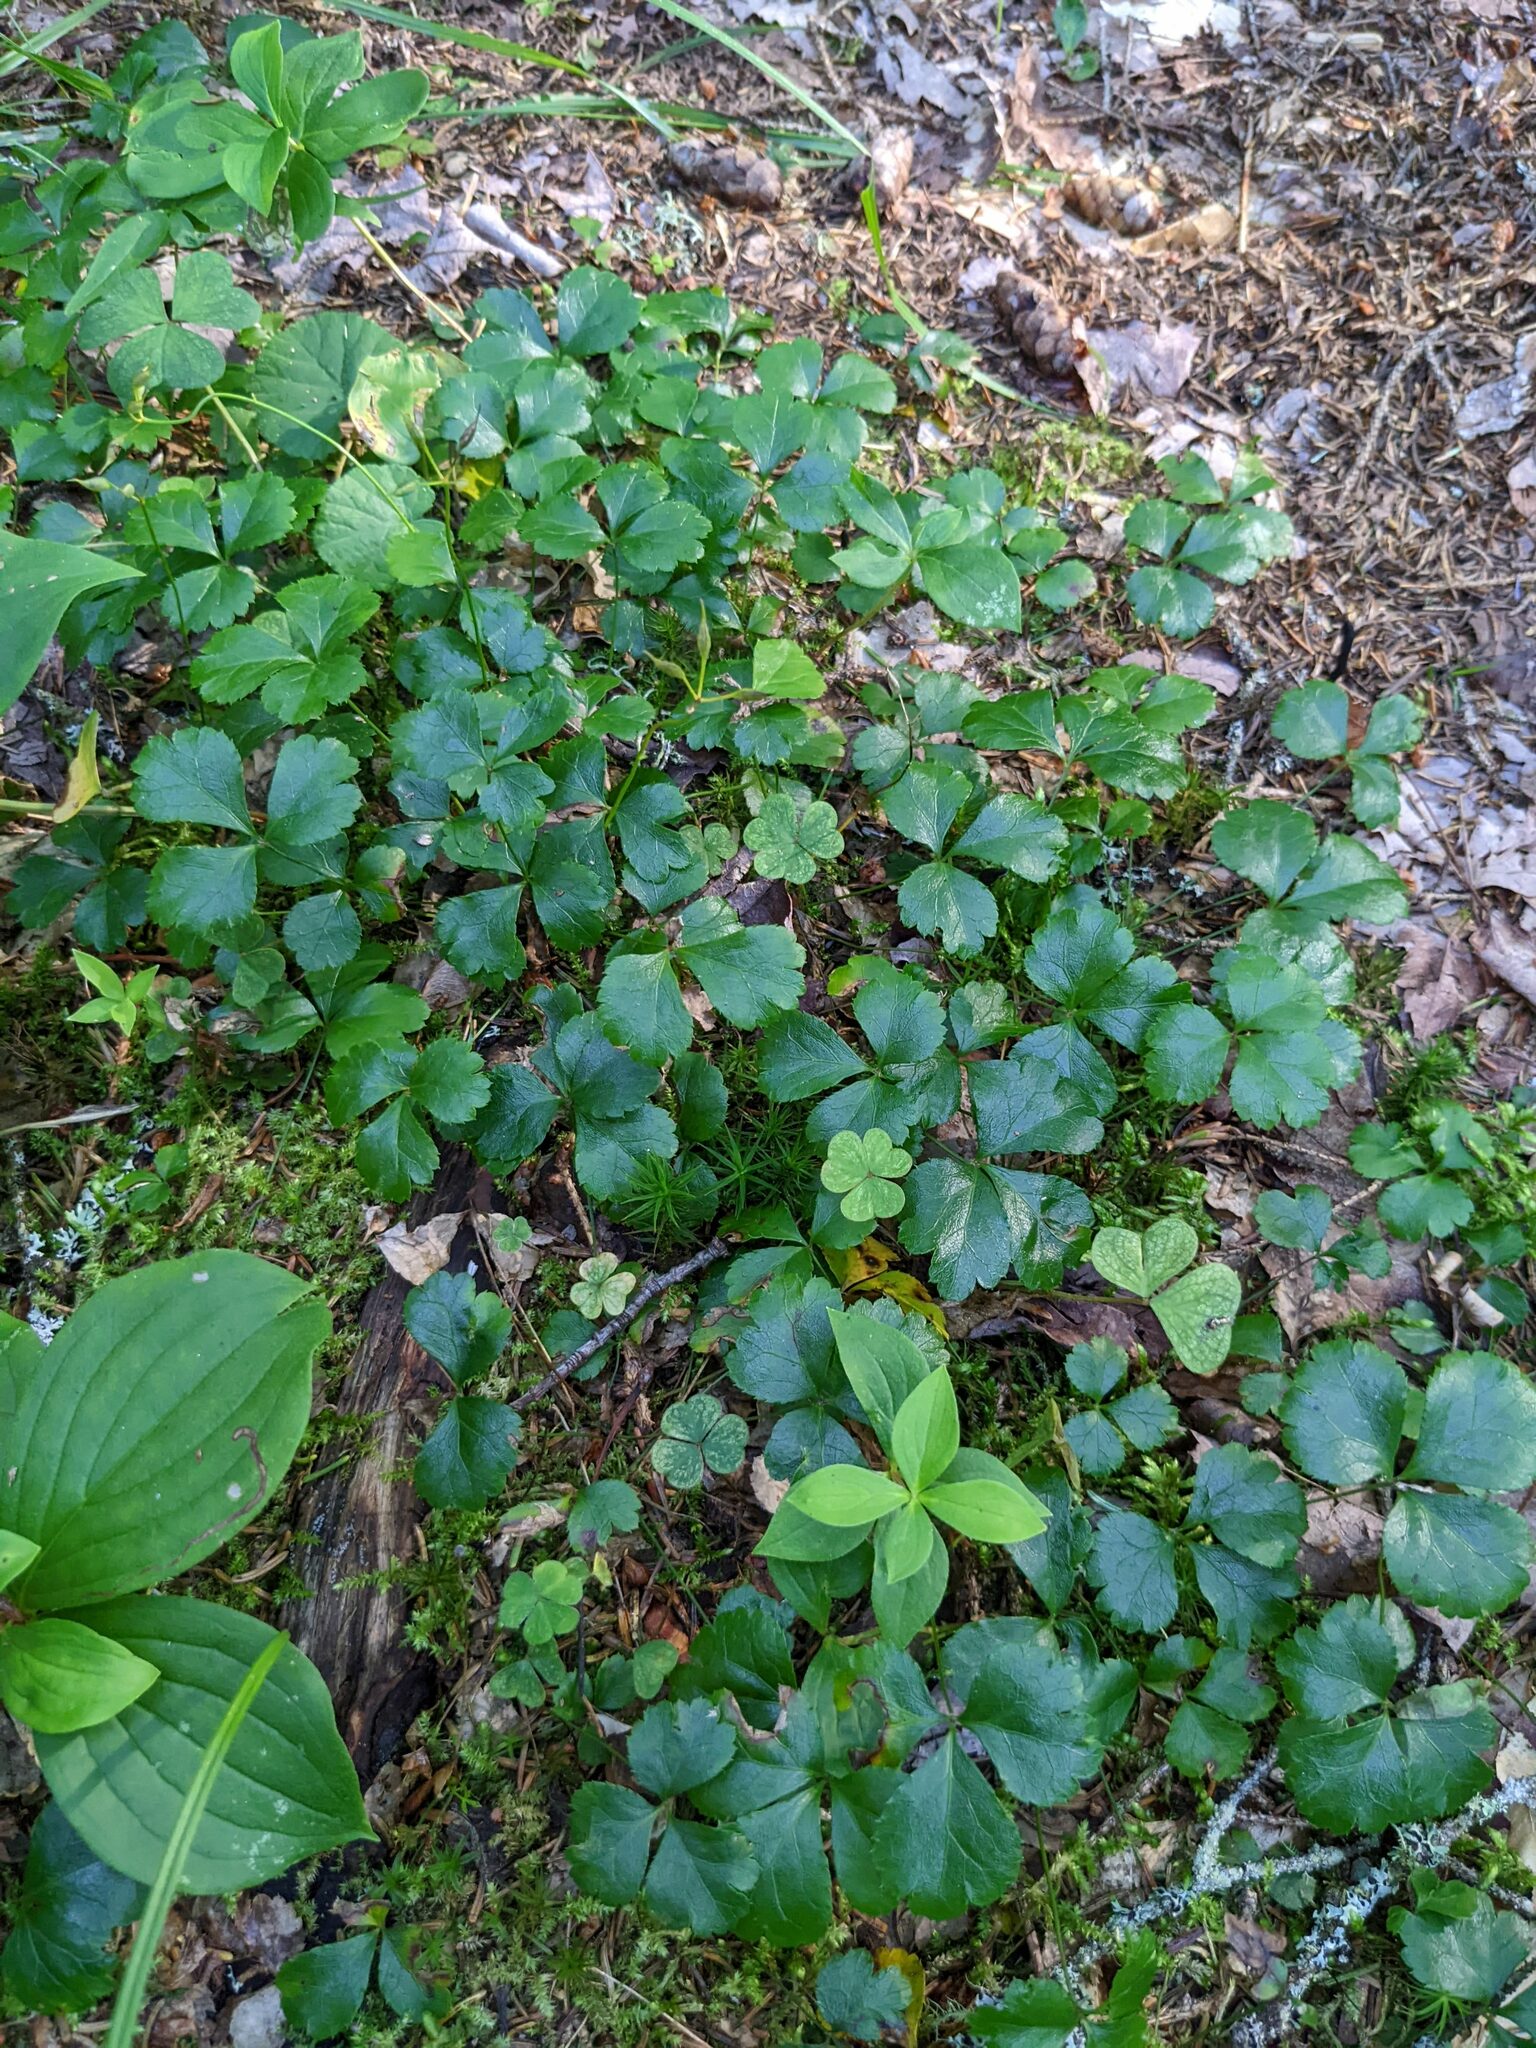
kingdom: Plantae
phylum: Tracheophyta
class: Magnoliopsida
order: Ranunculales
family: Ranunculaceae
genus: Coptis
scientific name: Coptis trifolia
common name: Canker-root
